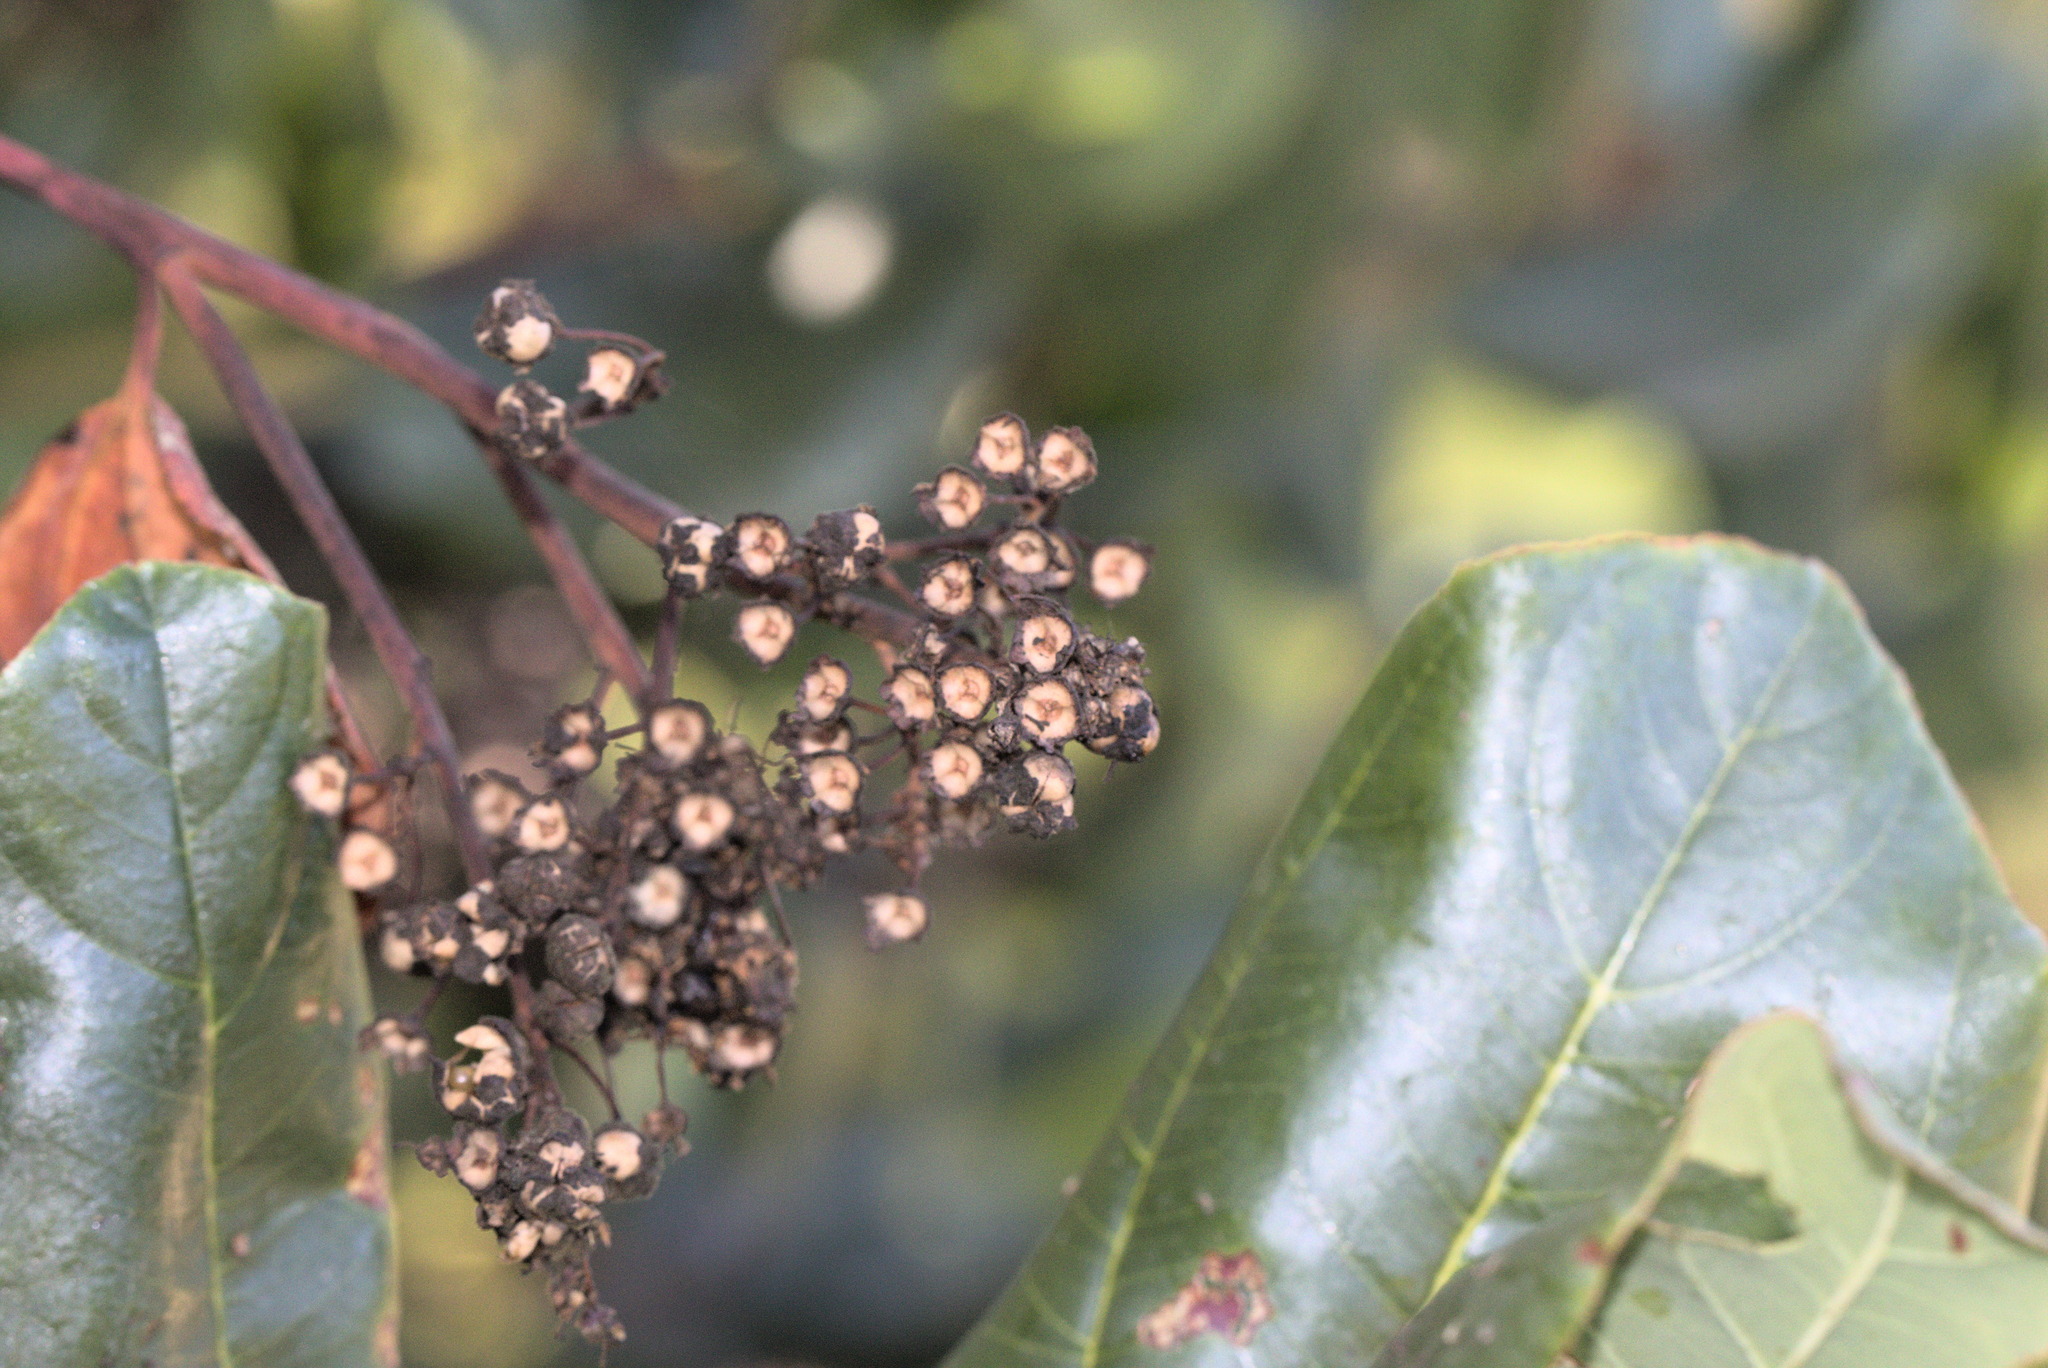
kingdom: Plantae
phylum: Tracheophyta
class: Magnoliopsida
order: Rosales
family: Rhamnaceae
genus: Ceanothus
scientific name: Ceanothus velutinus
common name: Snowbrush
